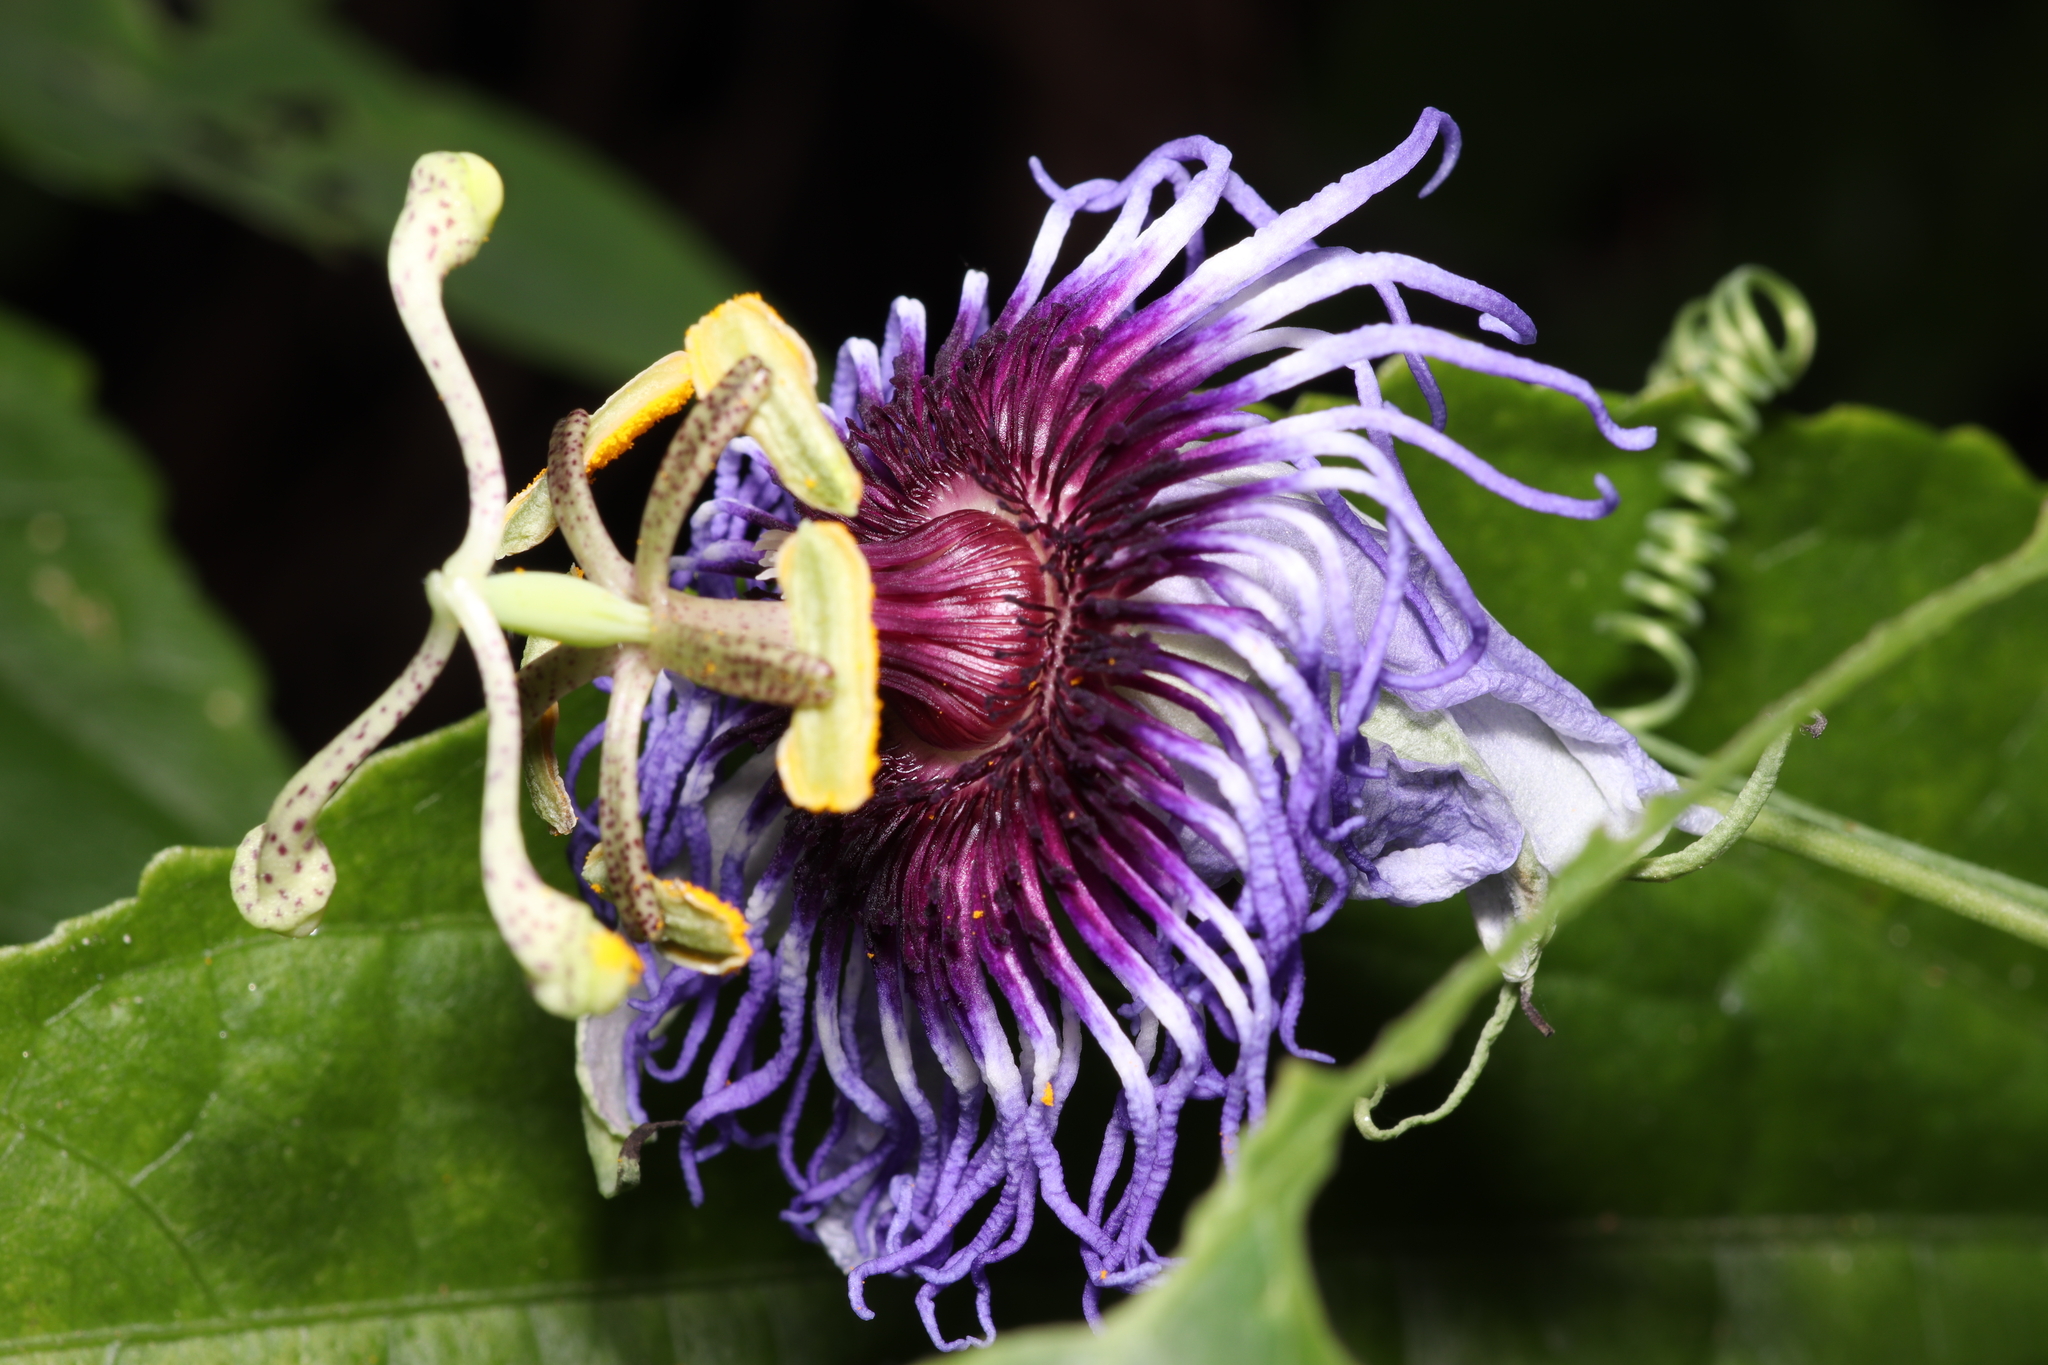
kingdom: Plantae
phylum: Tracheophyta
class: Magnoliopsida
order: Malpighiales
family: Passifloraceae
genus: Passiflora
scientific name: Passiflora amethystina
